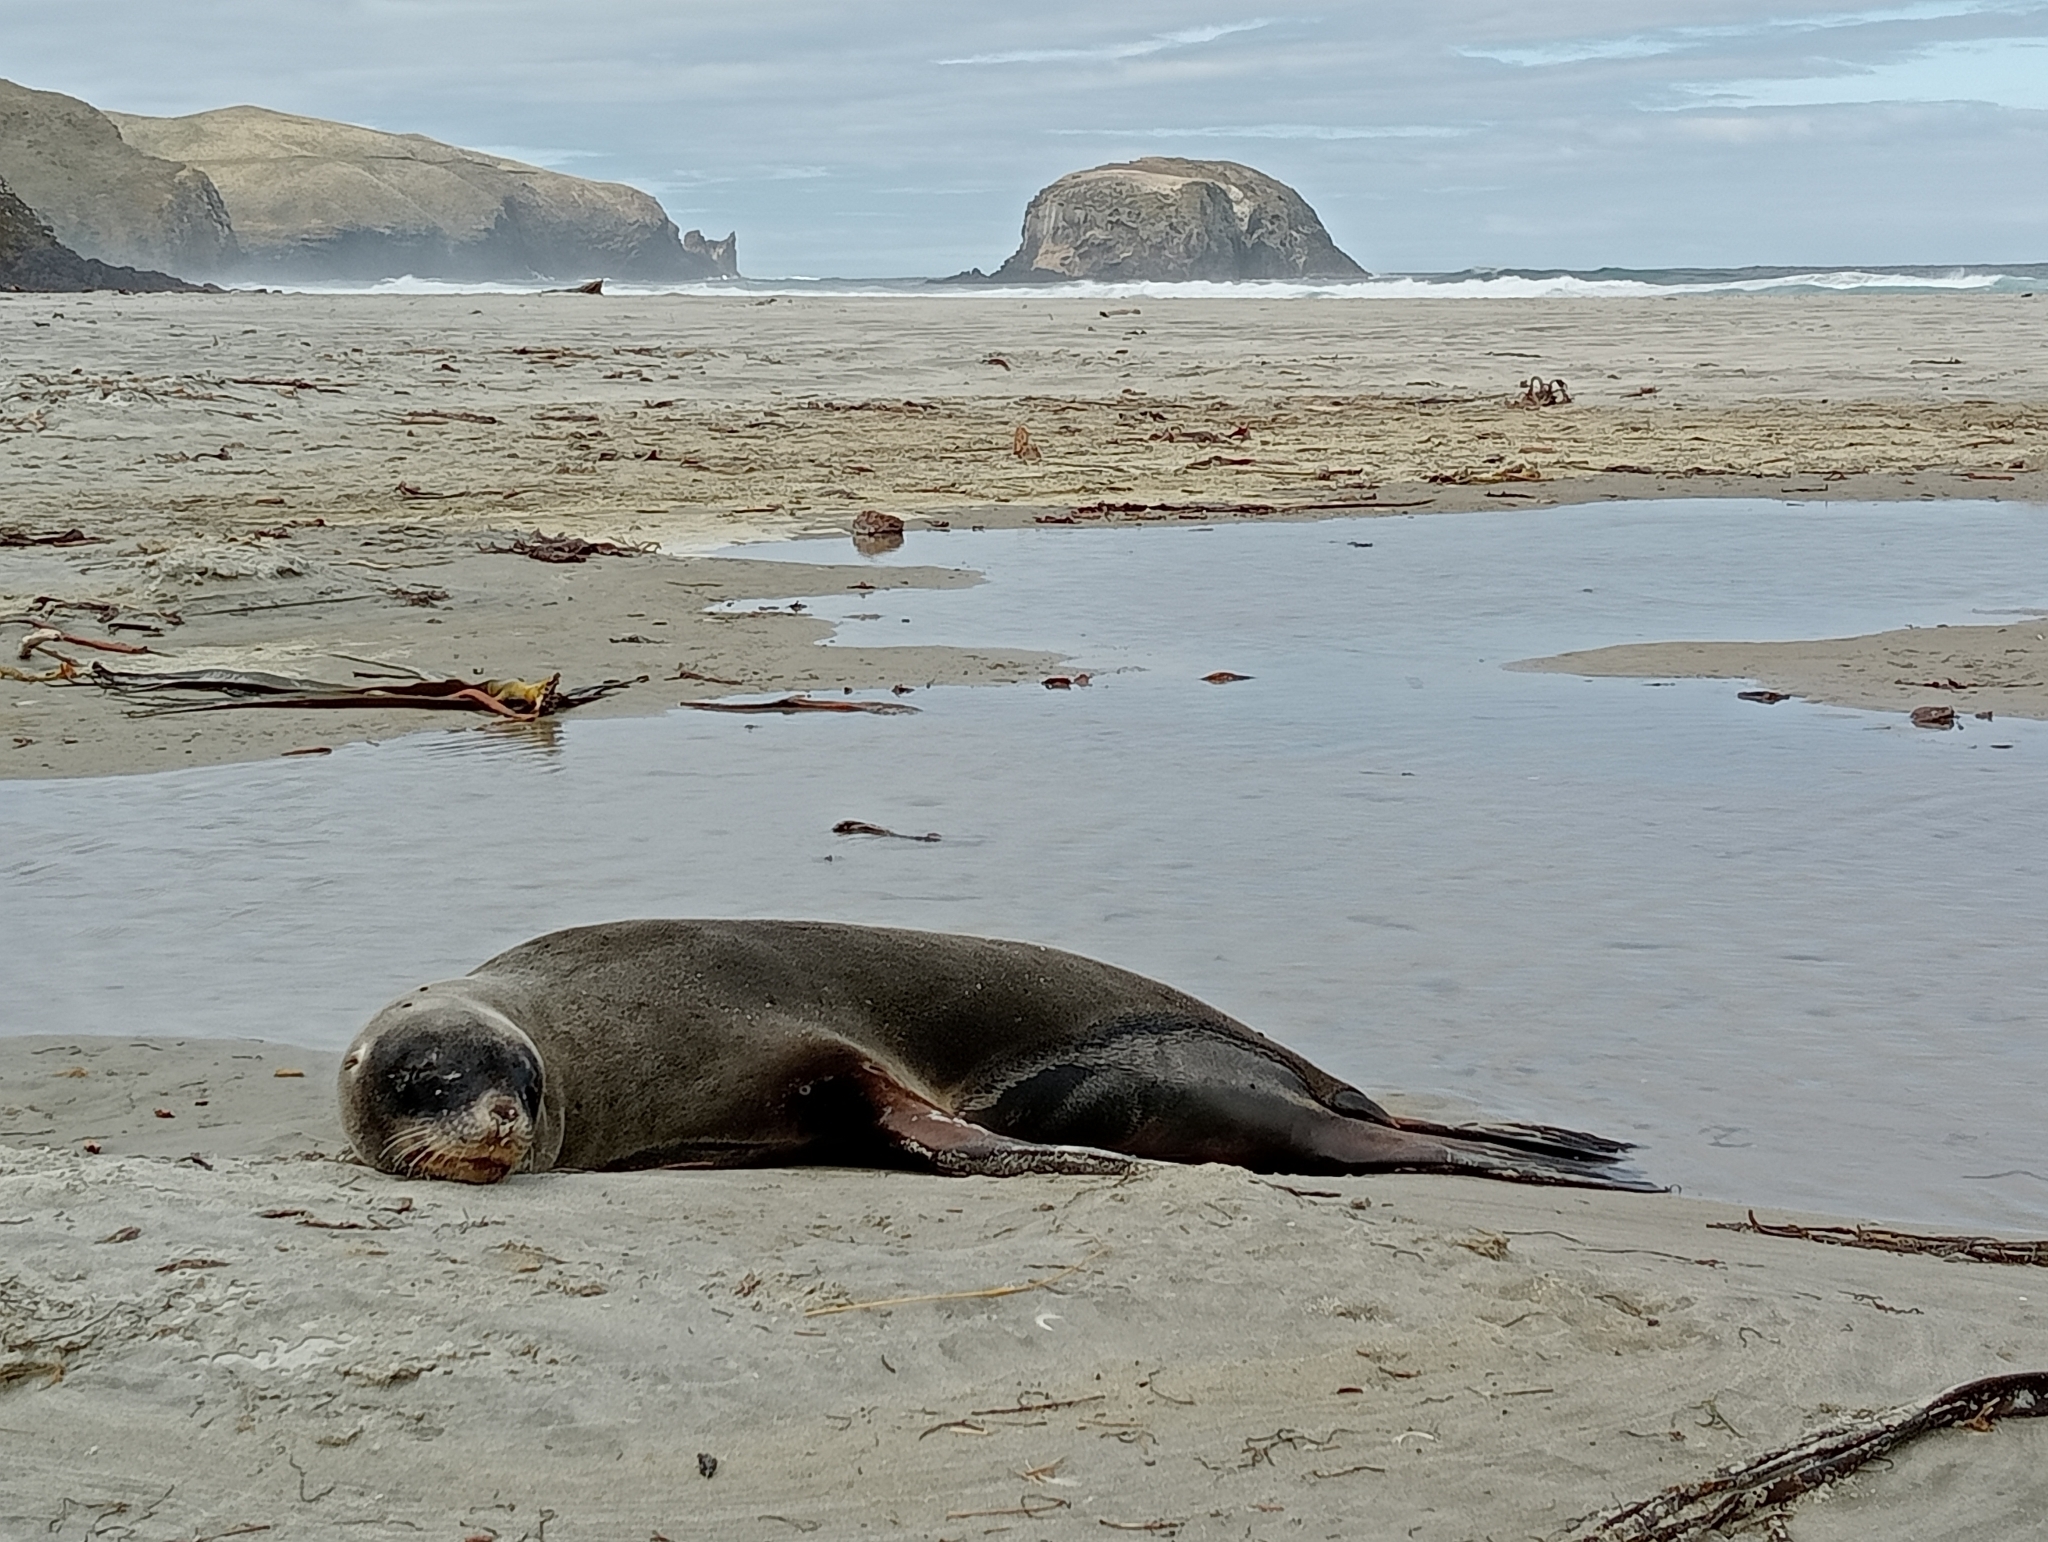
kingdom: Animalia
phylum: Chordata
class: Mammalia
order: Carnivora
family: Otariidae
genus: Phocarctos
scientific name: Phocarctos hookeri
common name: New zealand sea lion
